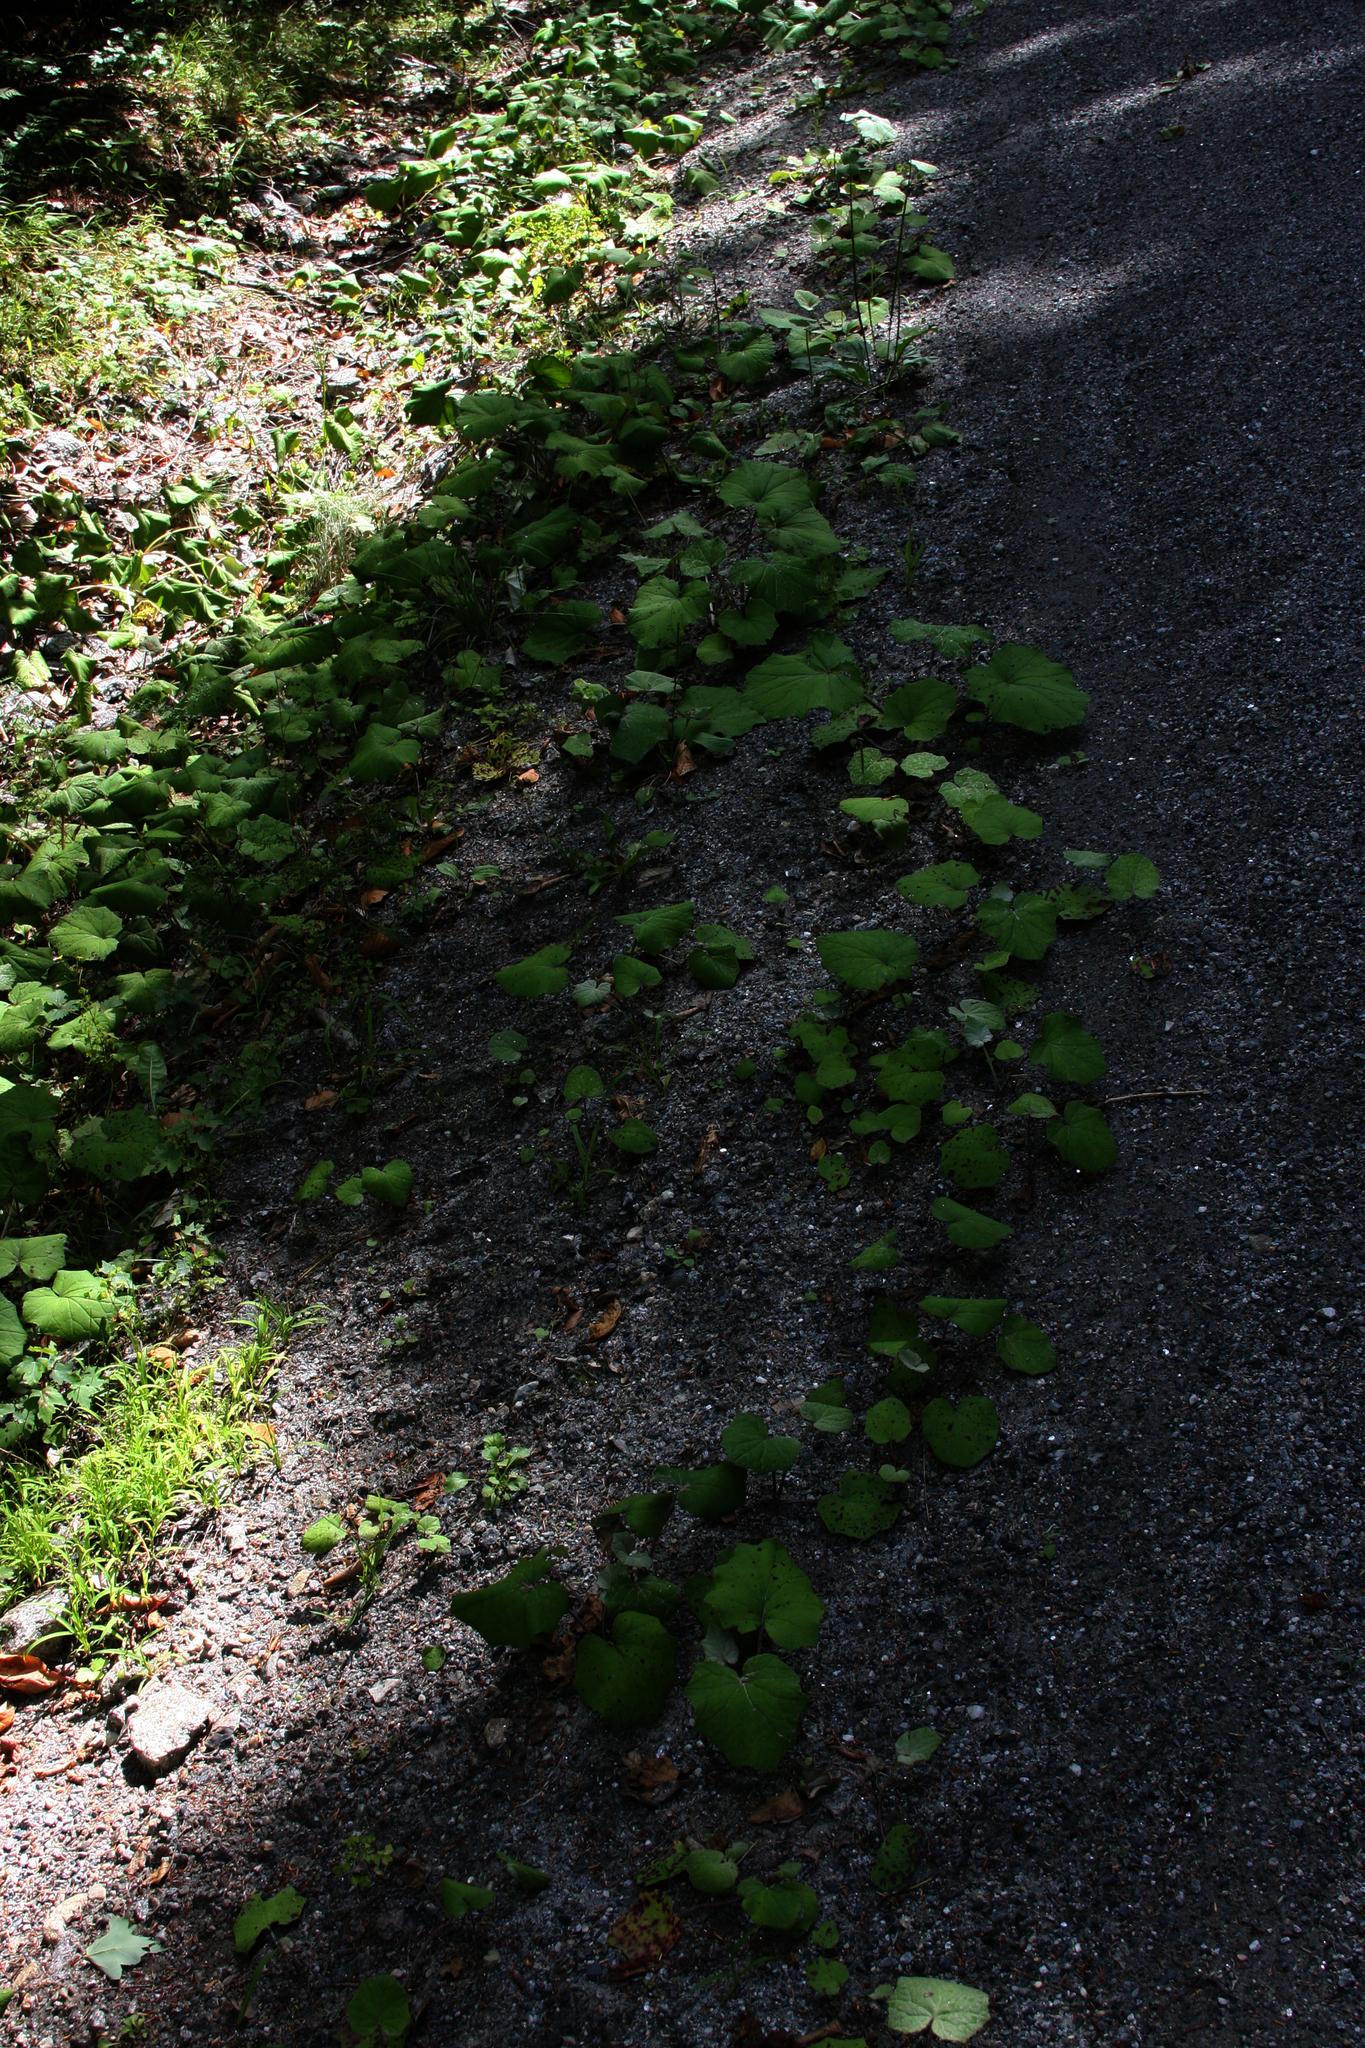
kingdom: Plantae
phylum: Tracheophyta
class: Magnoliopsida
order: Asterales
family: Asteraceae
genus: Tussilago
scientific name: Tussilago farfara
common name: Coltsfoot
